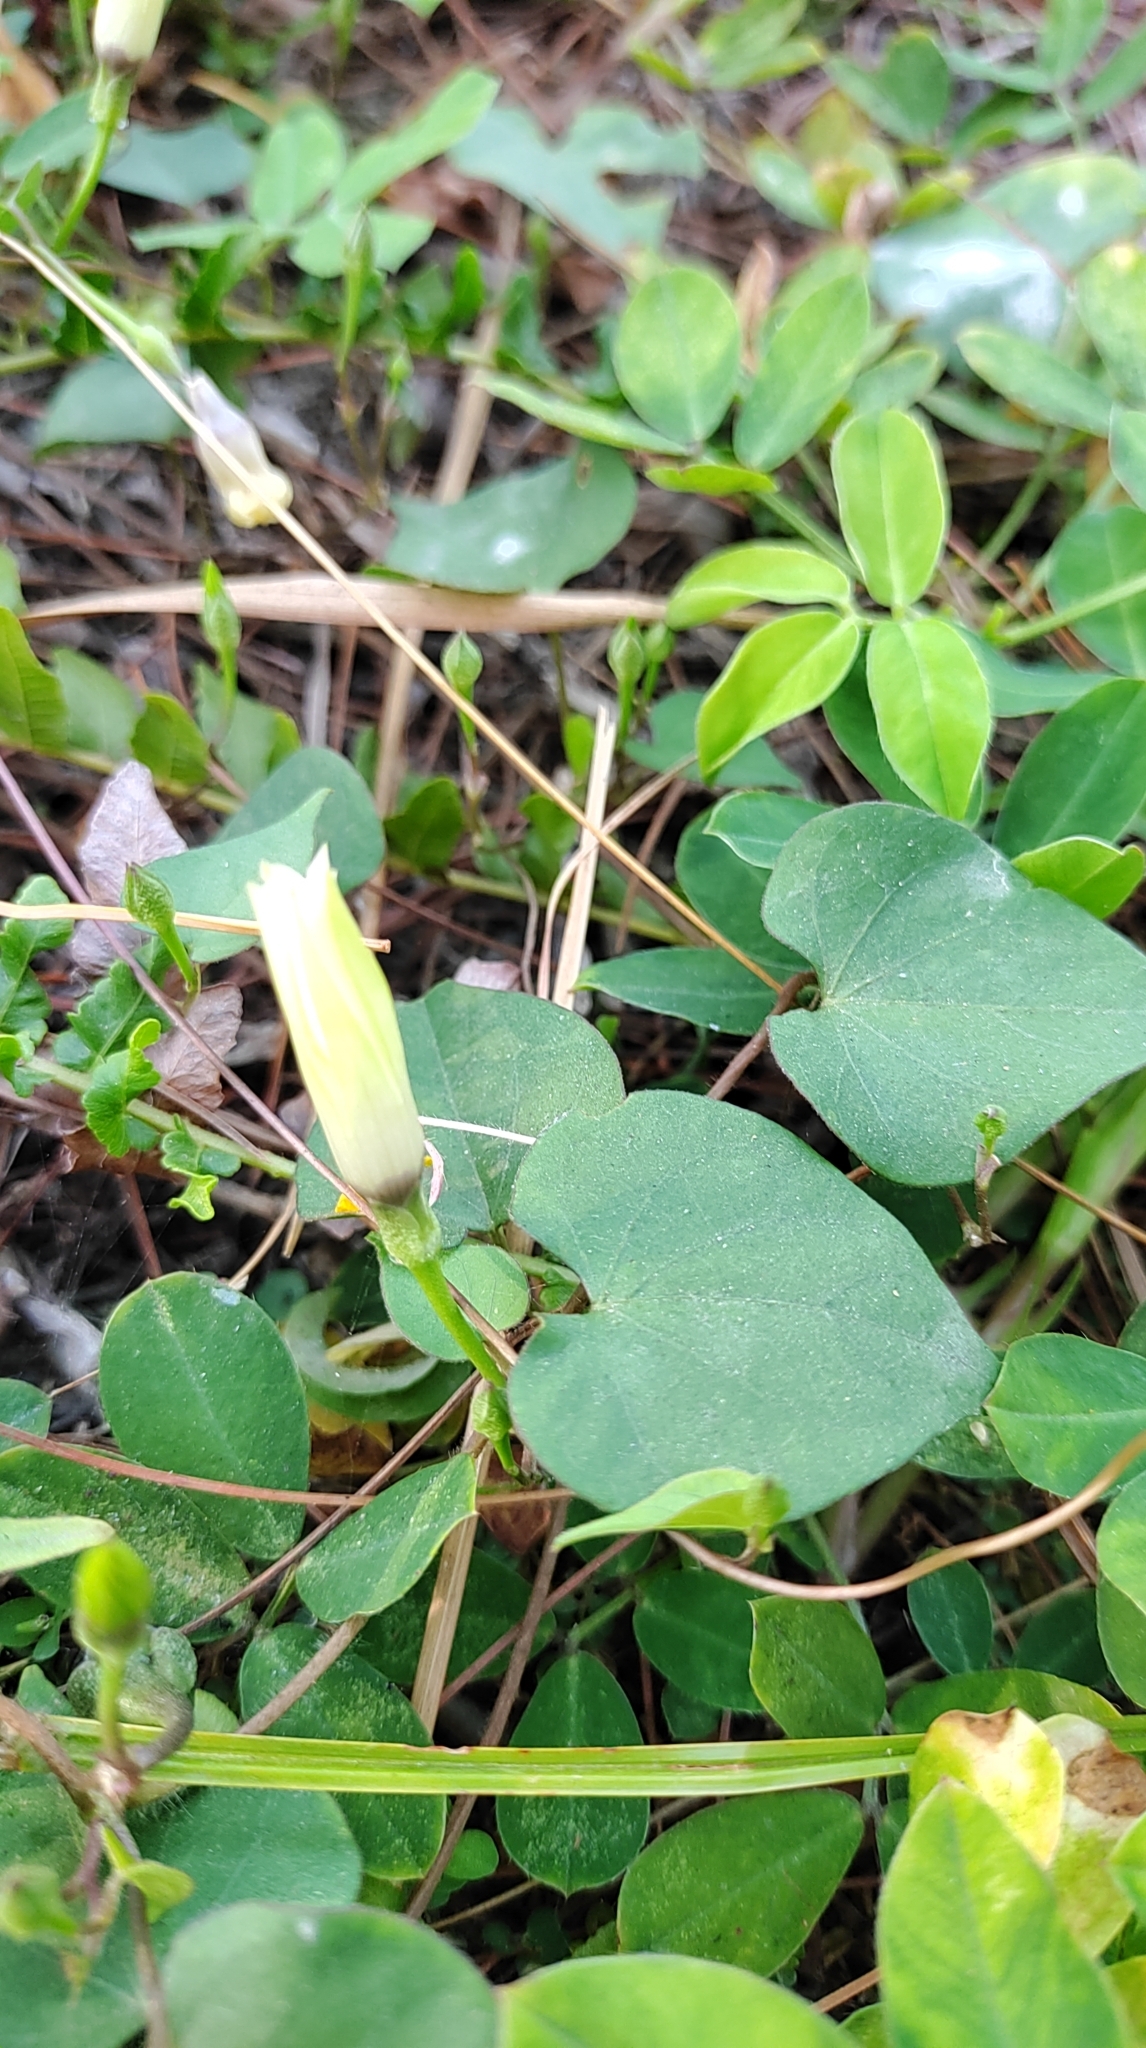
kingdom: Plantae
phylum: Tracheophyta
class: Magnoliopsida
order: Solanales
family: Convolvulaceae
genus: Ipomoea
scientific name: Ipomoea obscura
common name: Obscure morning-glory
